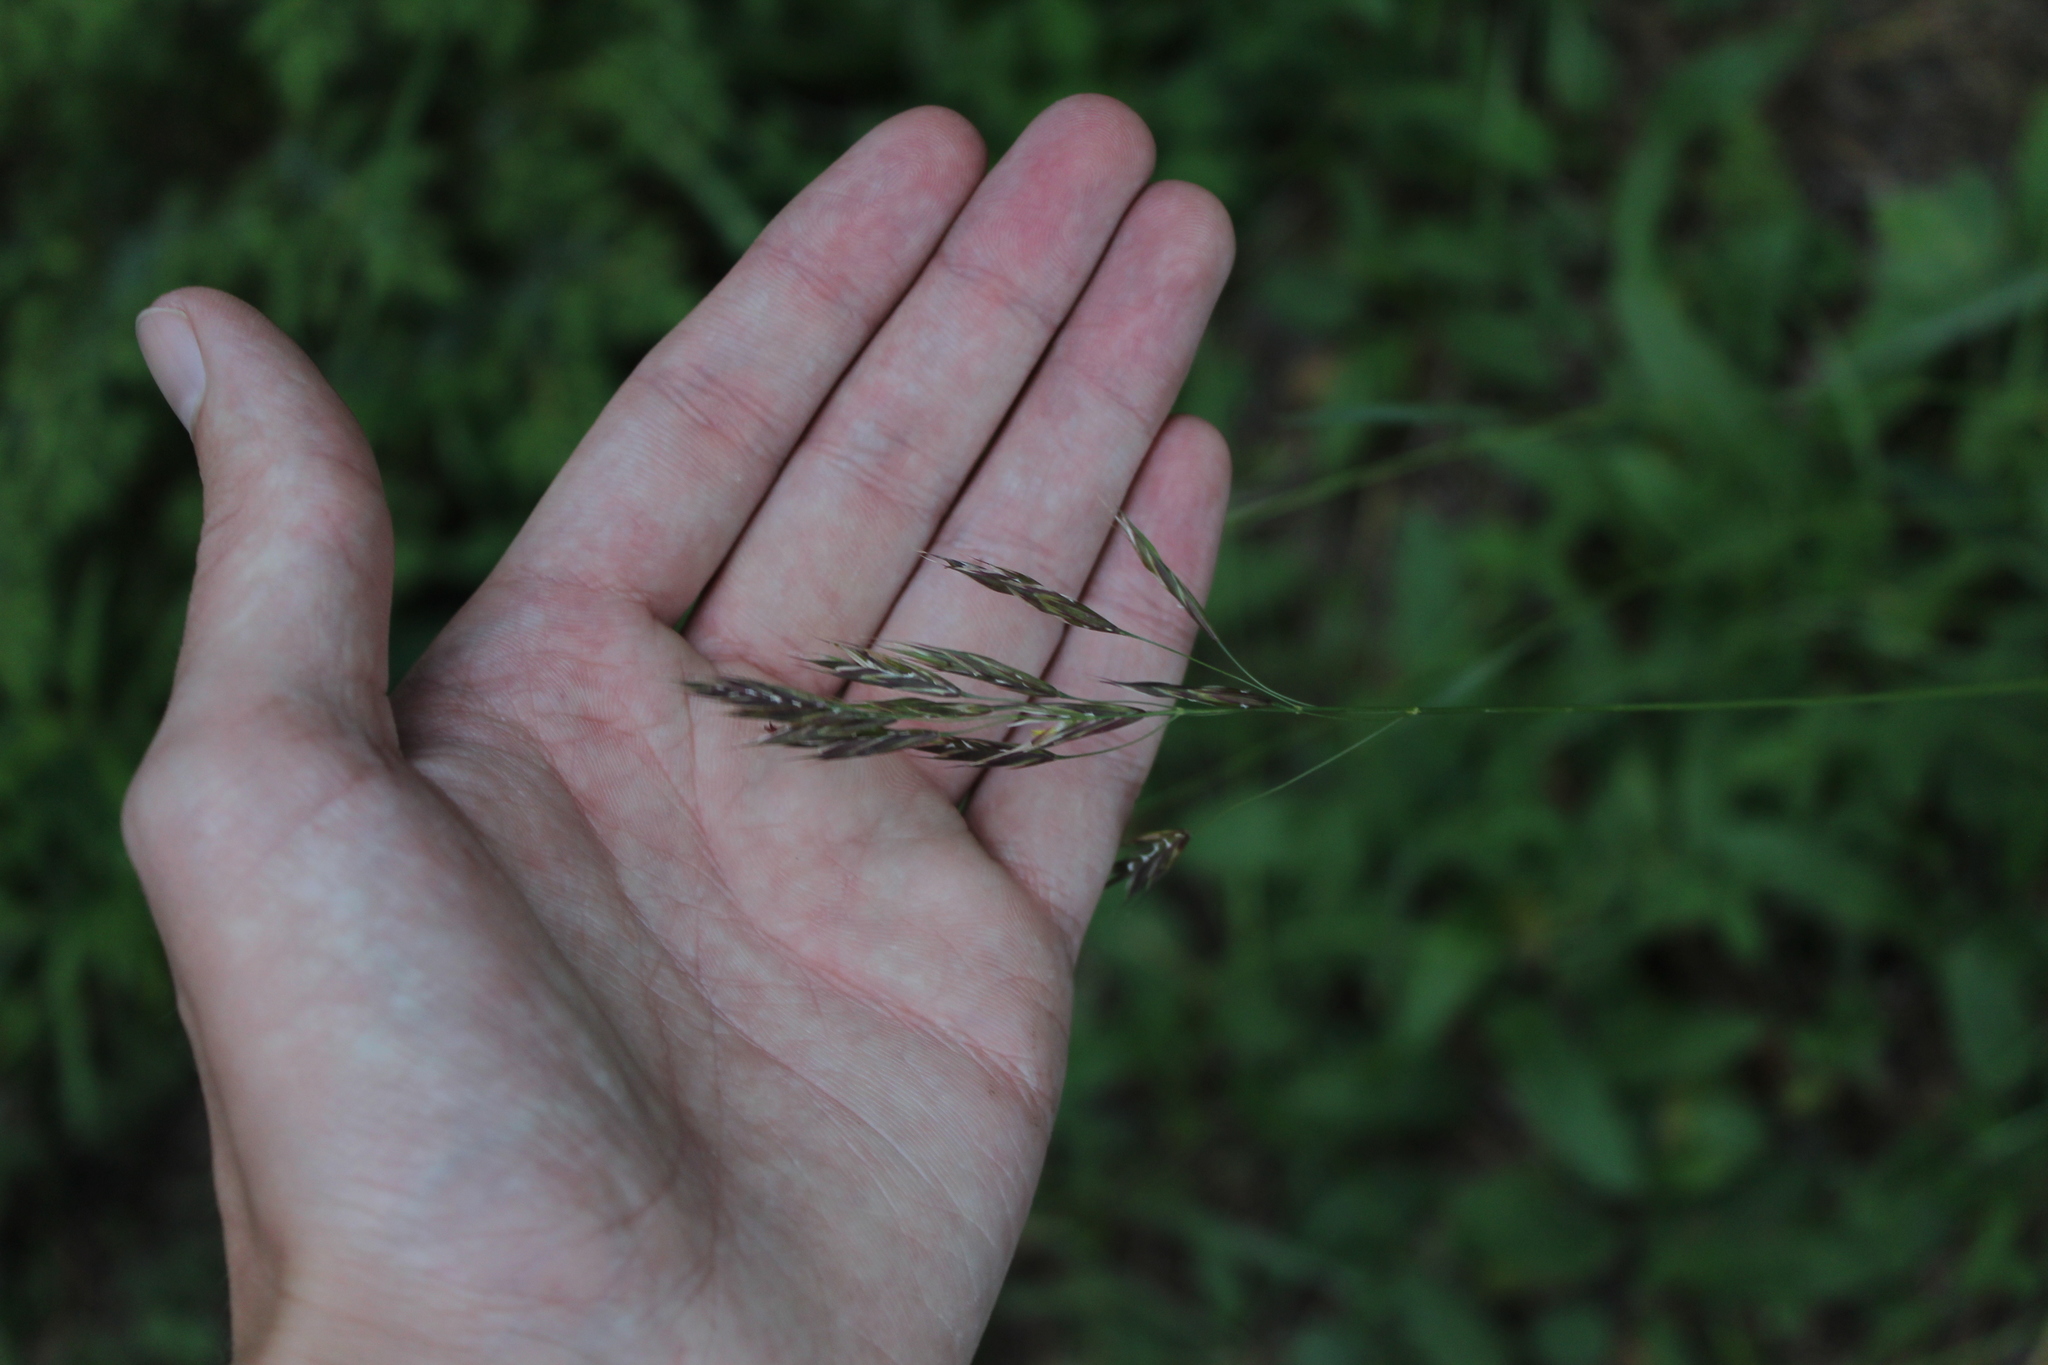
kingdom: Plantae
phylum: Tracheophyta
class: Liliopsida
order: Poales
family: Poaceae
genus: Bromus
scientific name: Bromus variegatus
